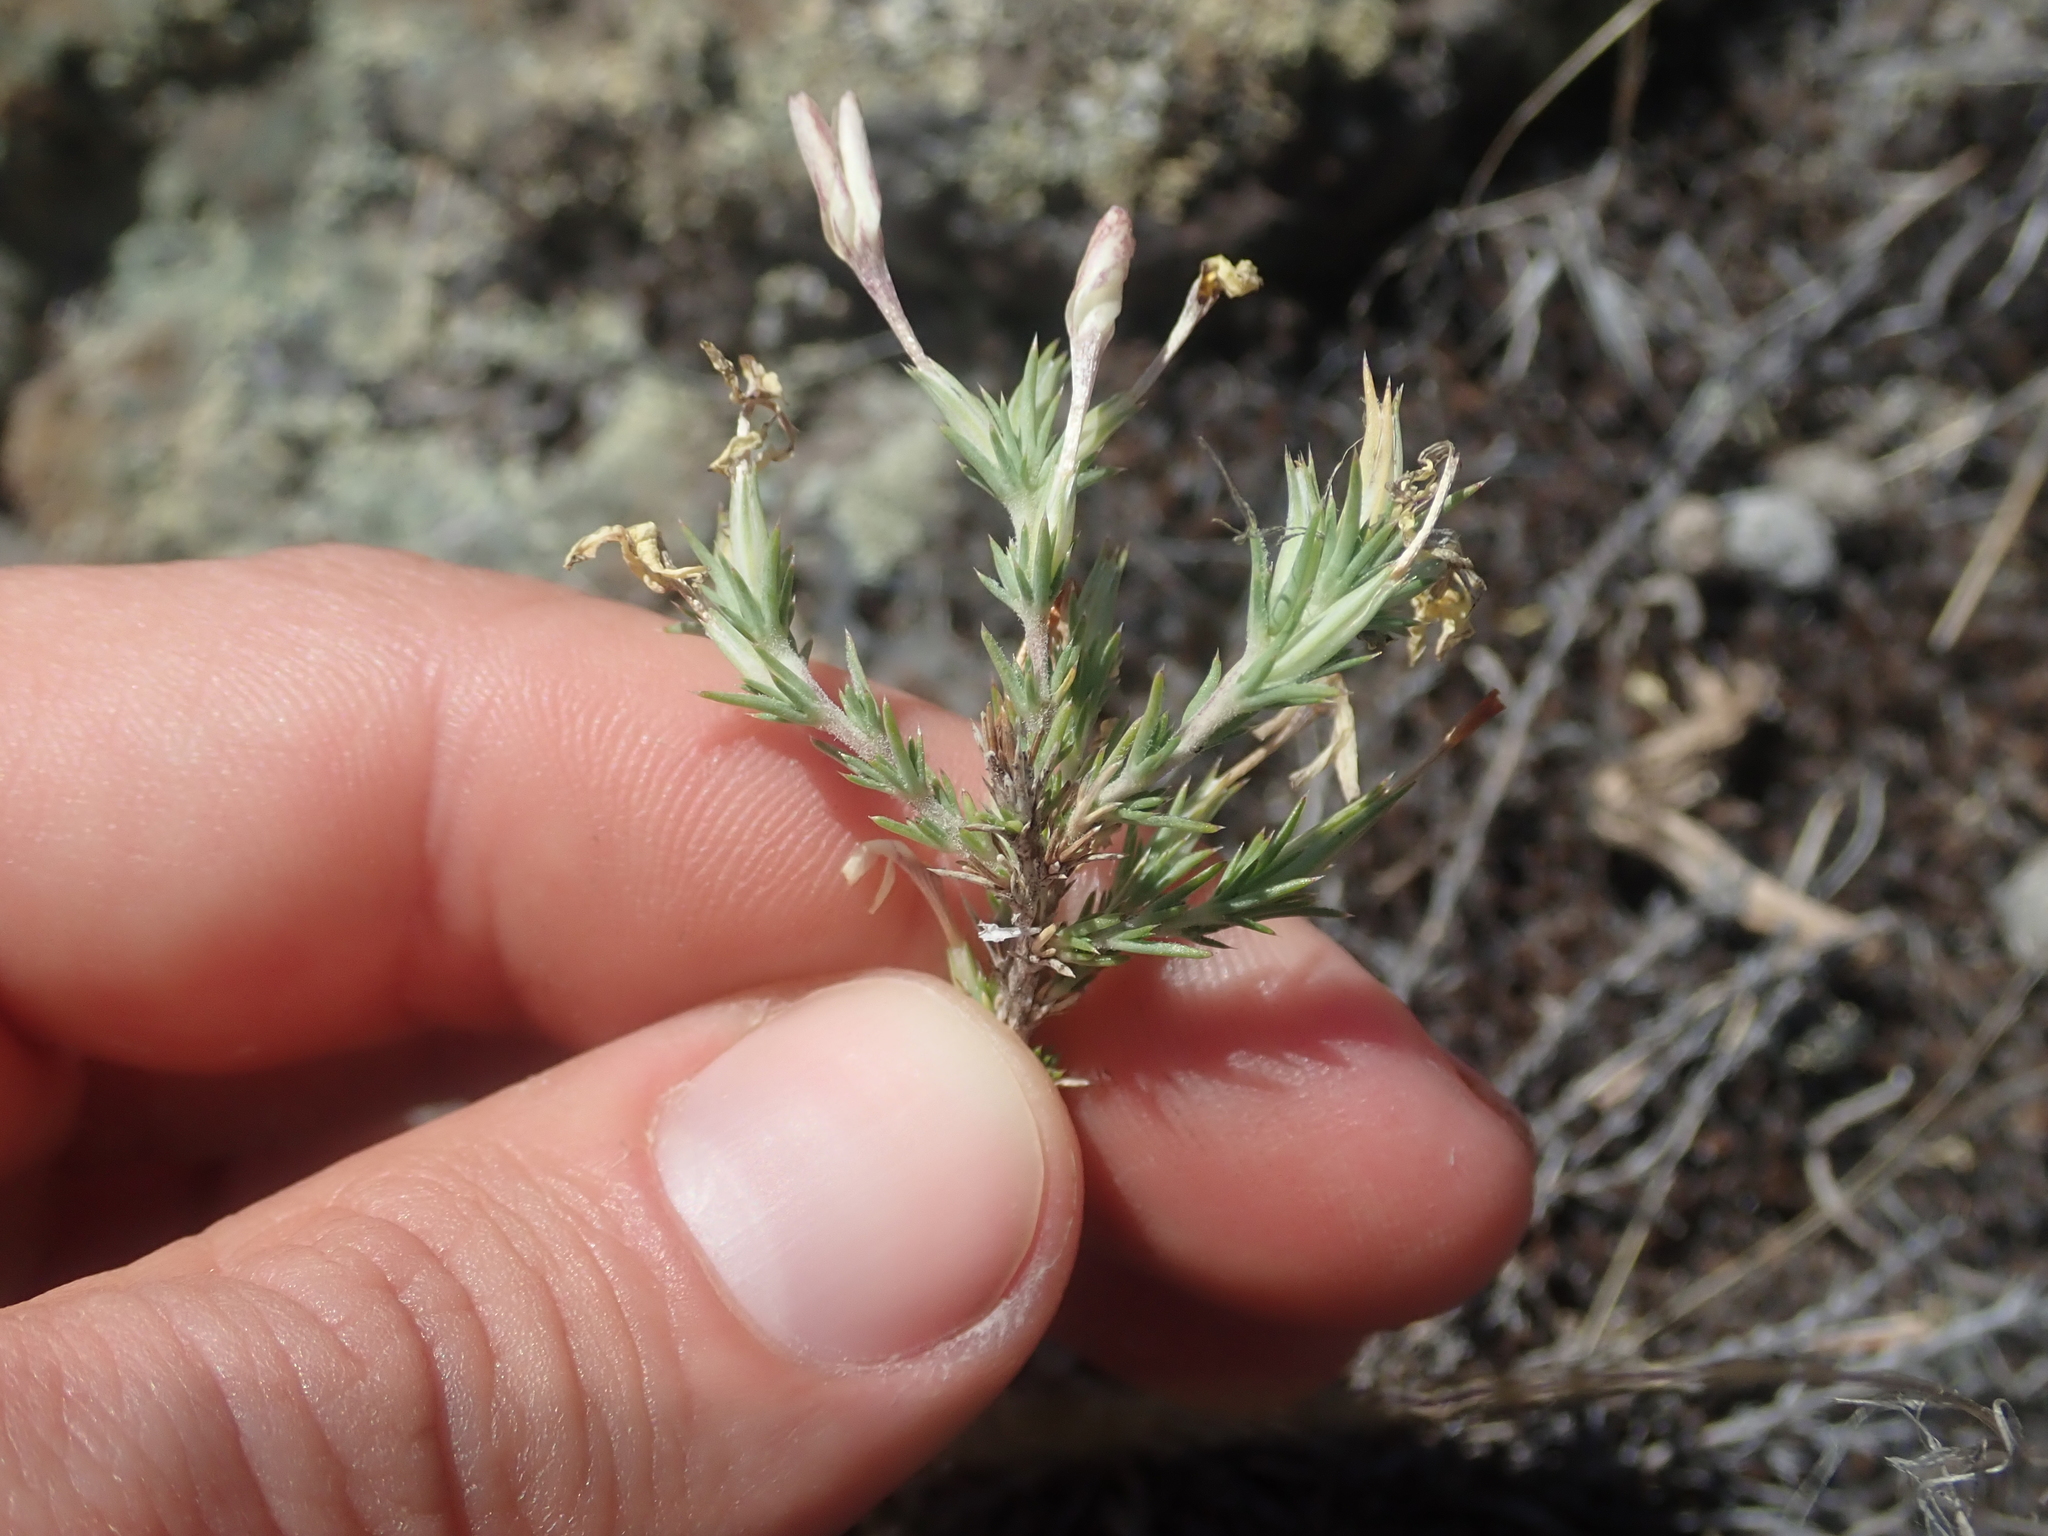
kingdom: Plantae
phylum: Tracheophyta
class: Magnoliopsida
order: Ericales
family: Polemoniaceae
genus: Linanthus
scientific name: Linanthus pungens
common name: Granite prickly phlox
